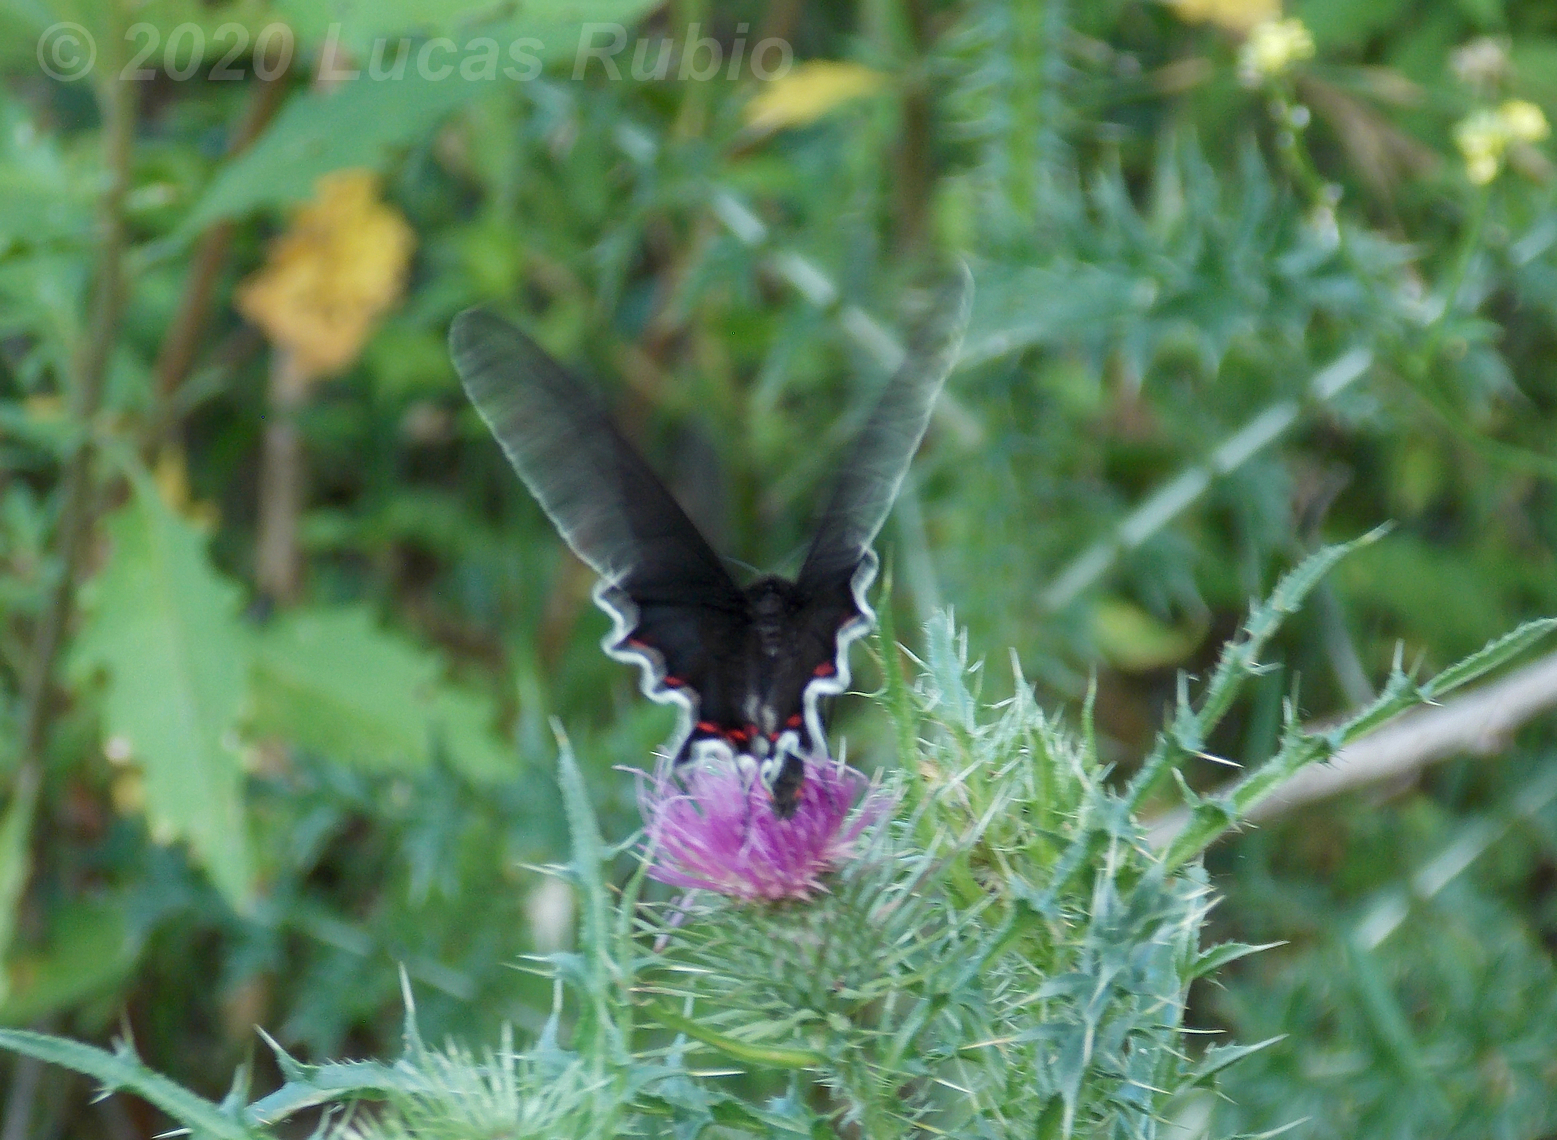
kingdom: Animalia
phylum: Arthropoda
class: Insecta
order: Lepidoptera
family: Papilionidae
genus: Parides
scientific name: Parides bunichus
